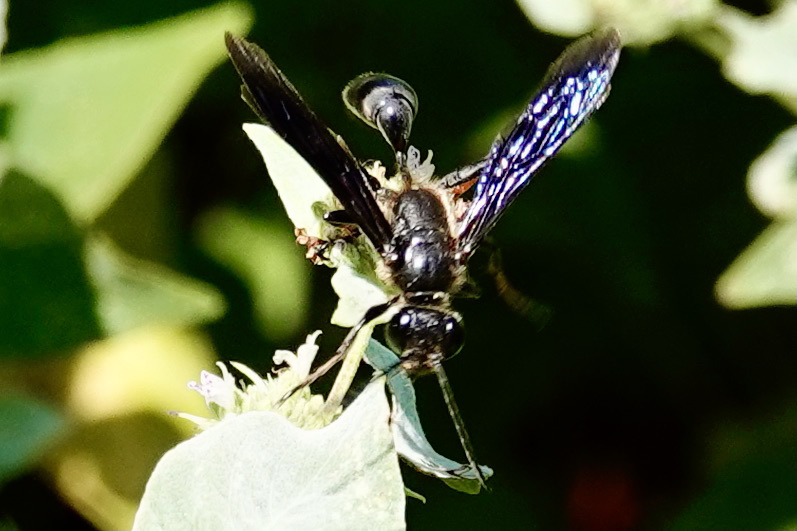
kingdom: Animalia
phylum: Arthropoda
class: Insecta
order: Hymenoptera
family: Sphecidae
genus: Isodontia
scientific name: Isodontia auripes
